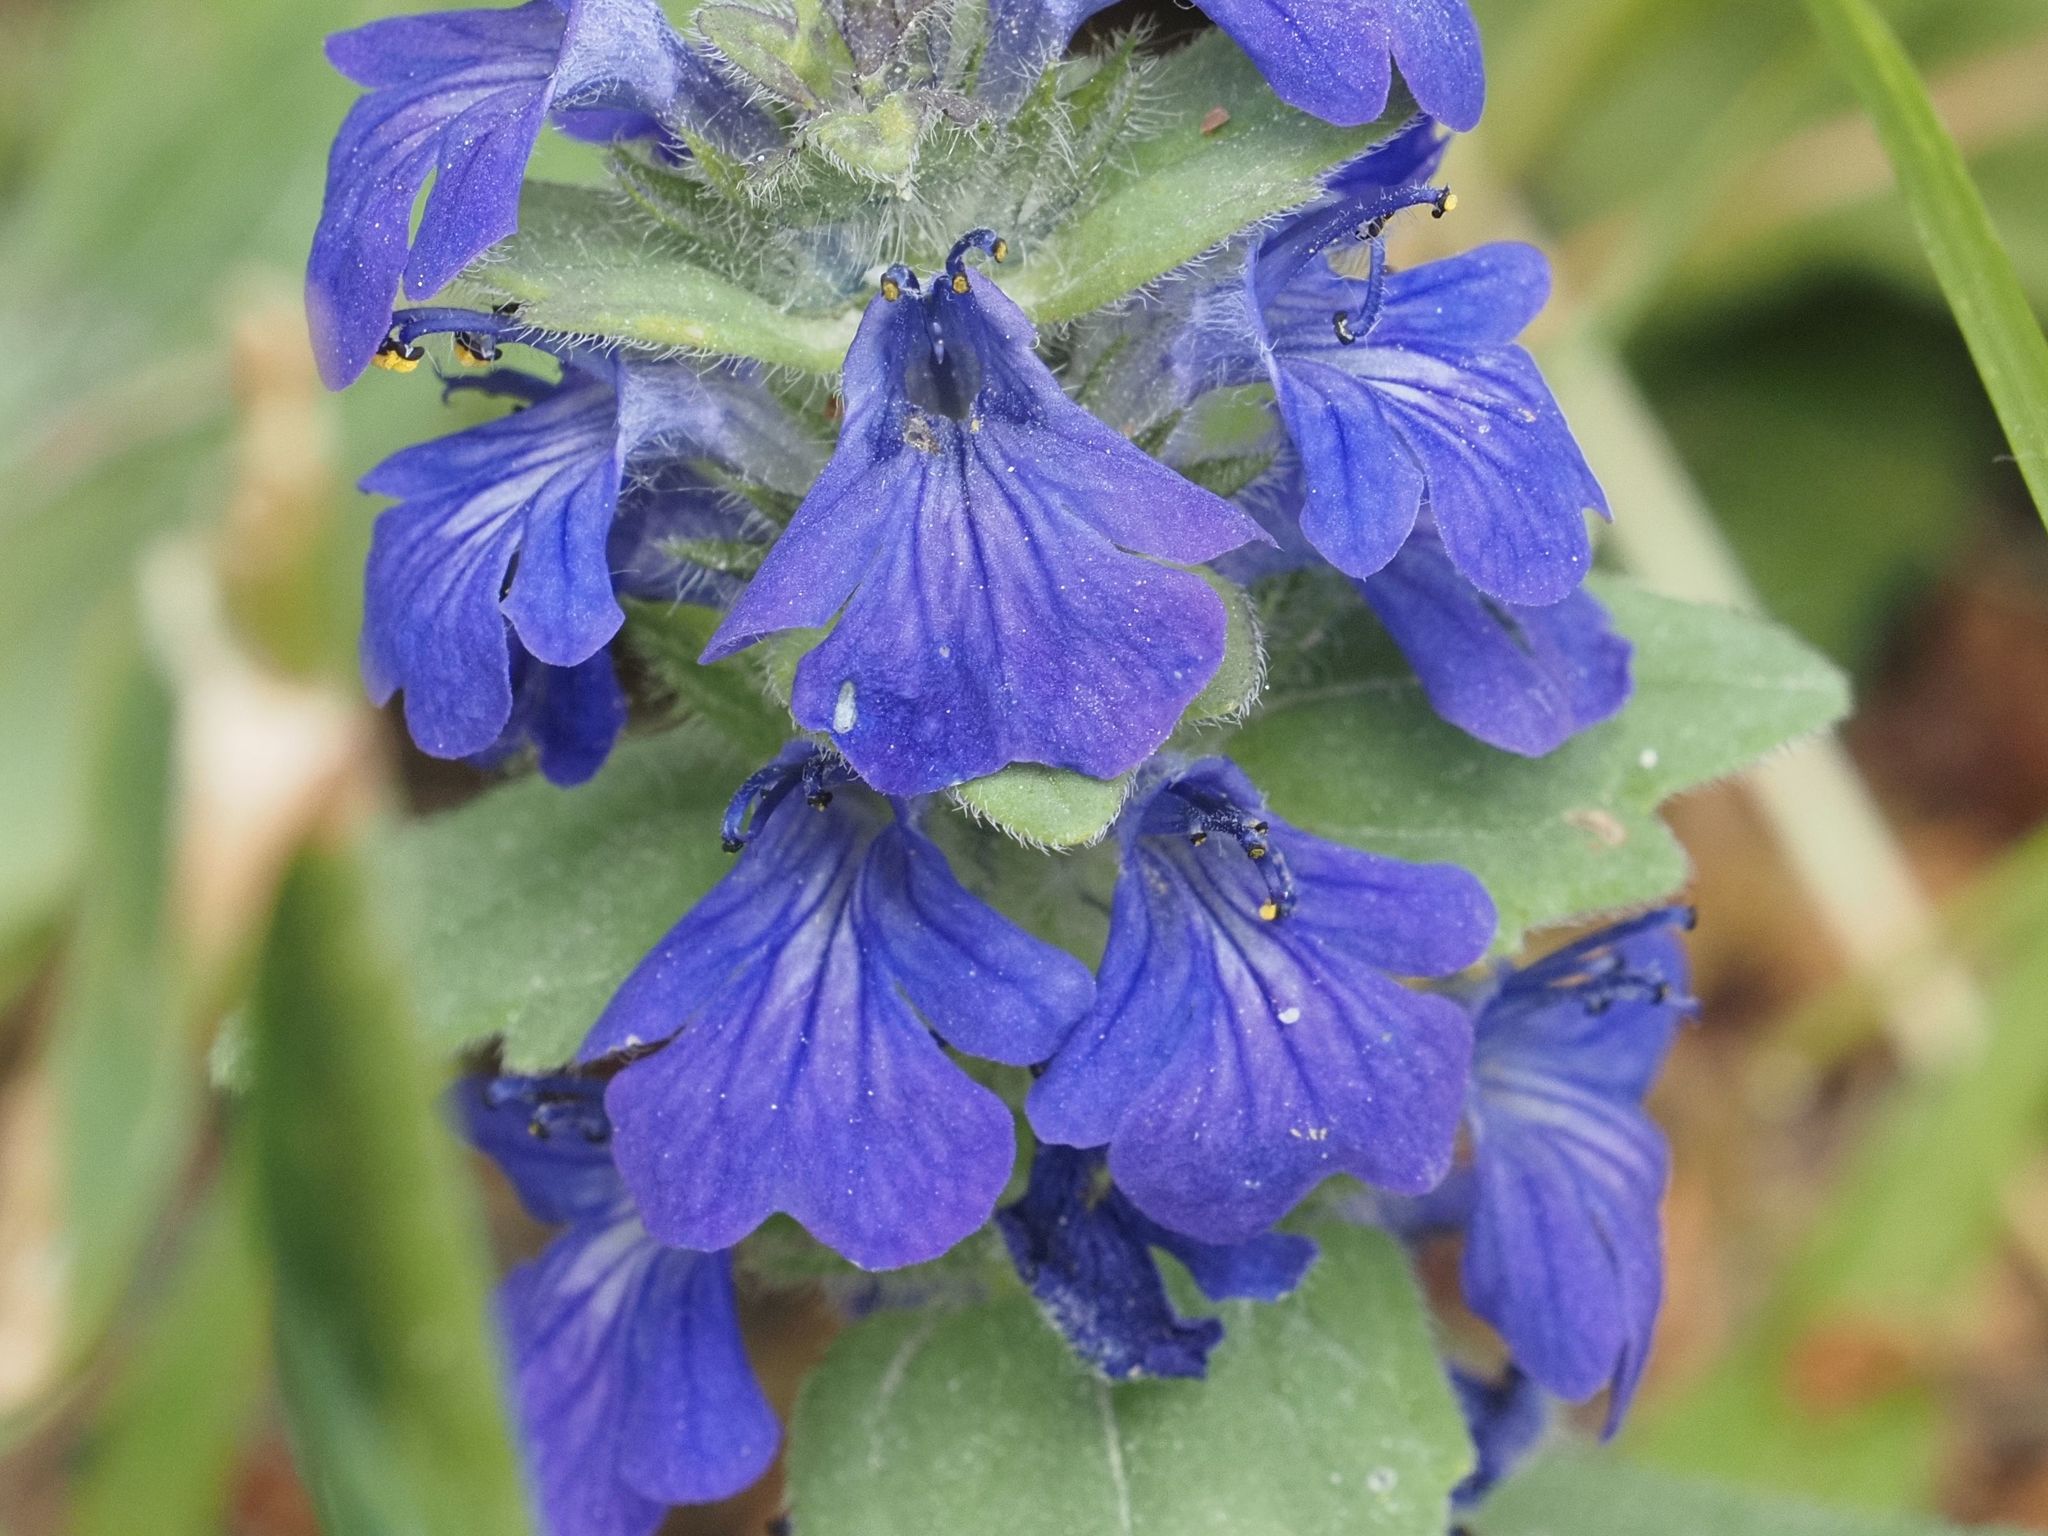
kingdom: Plantae
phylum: Tracheophyta
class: Magnoliopsida
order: Lamiales
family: Lamiaceae
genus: Ajuga
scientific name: Ajuga genevensis
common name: Blue bugle
